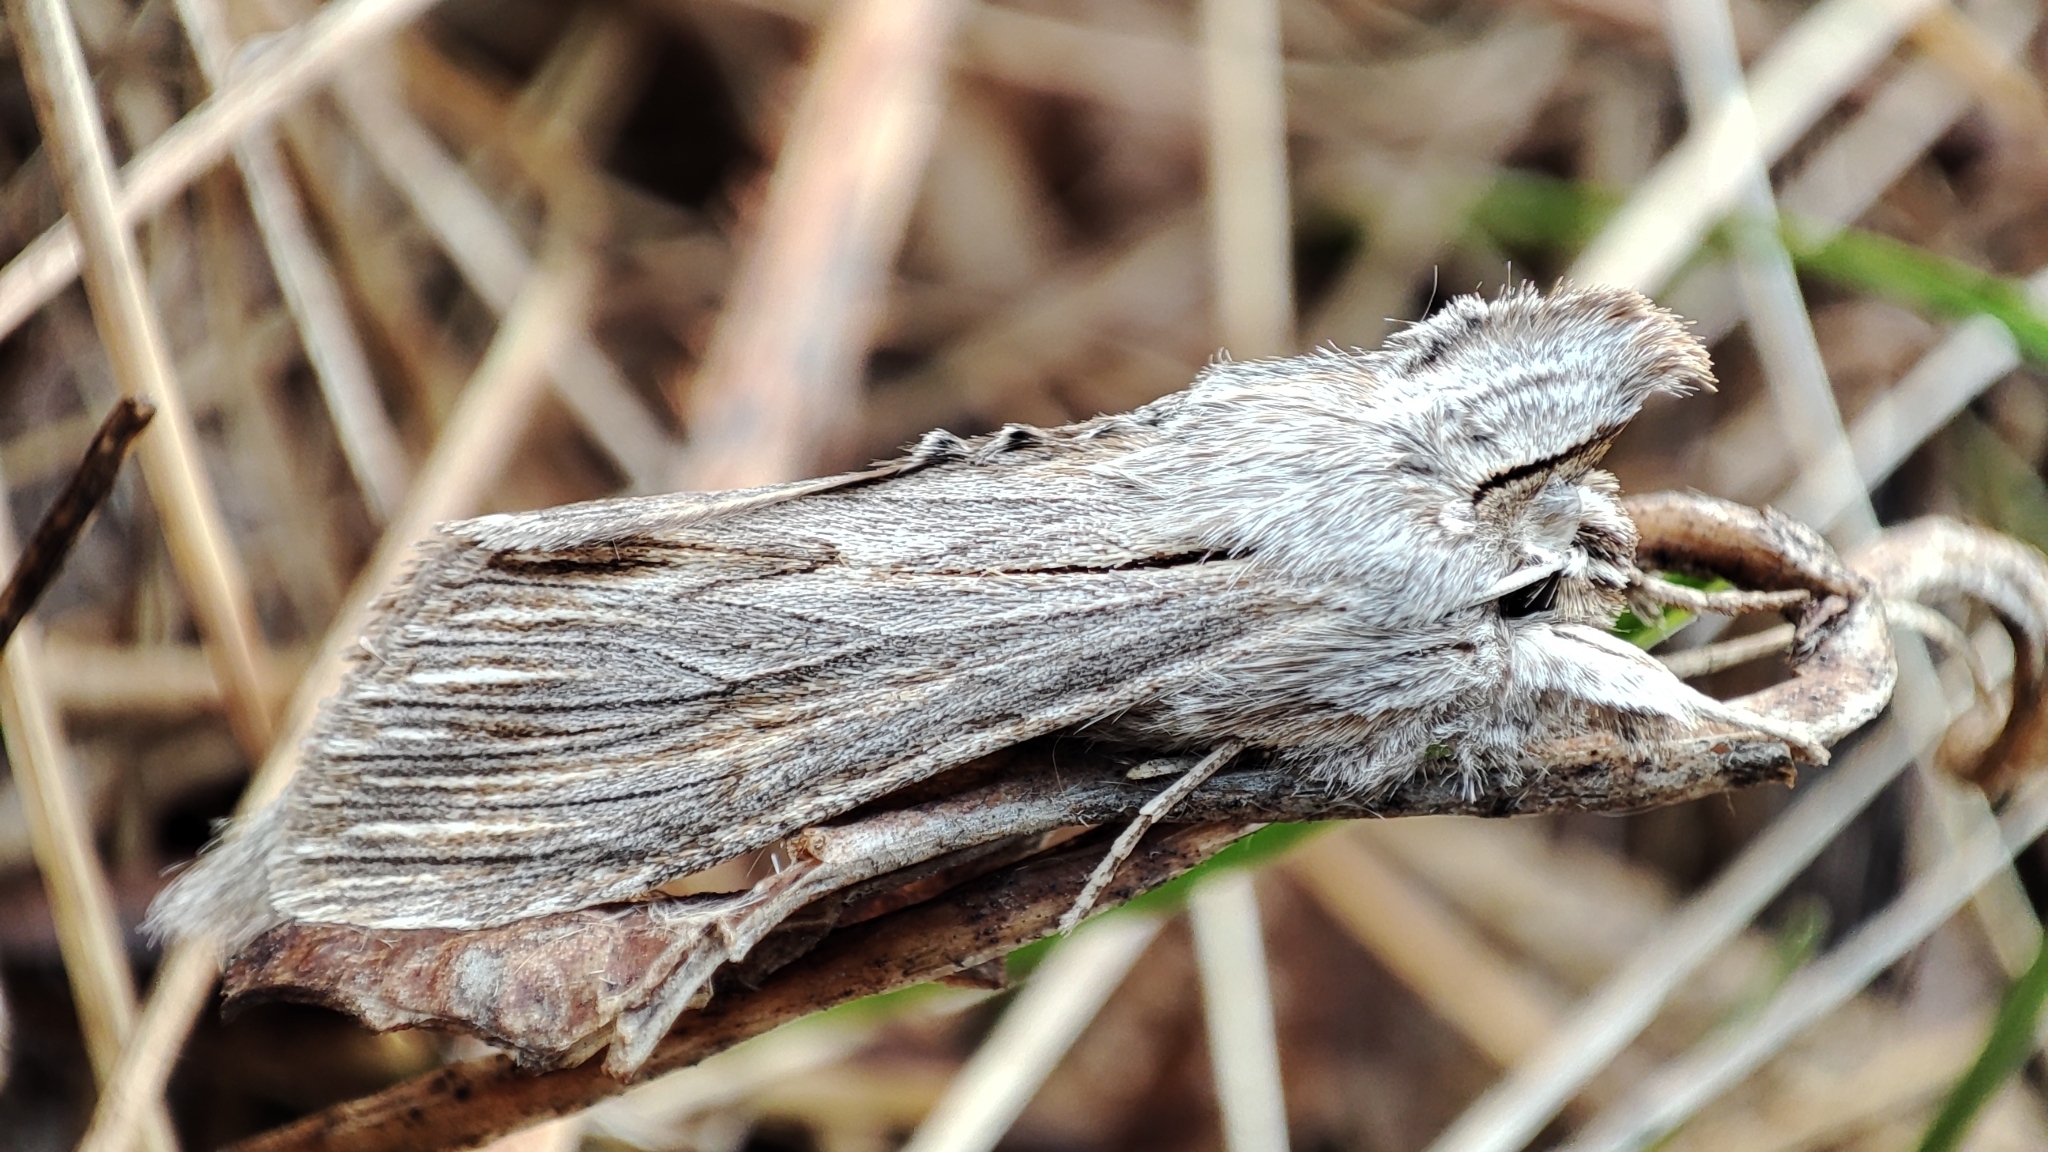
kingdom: Animalia
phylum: Arthropoda
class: Insecta
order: Lepidoptera
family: Noctuidae
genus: Cucullia
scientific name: Cucullia inderiensis
